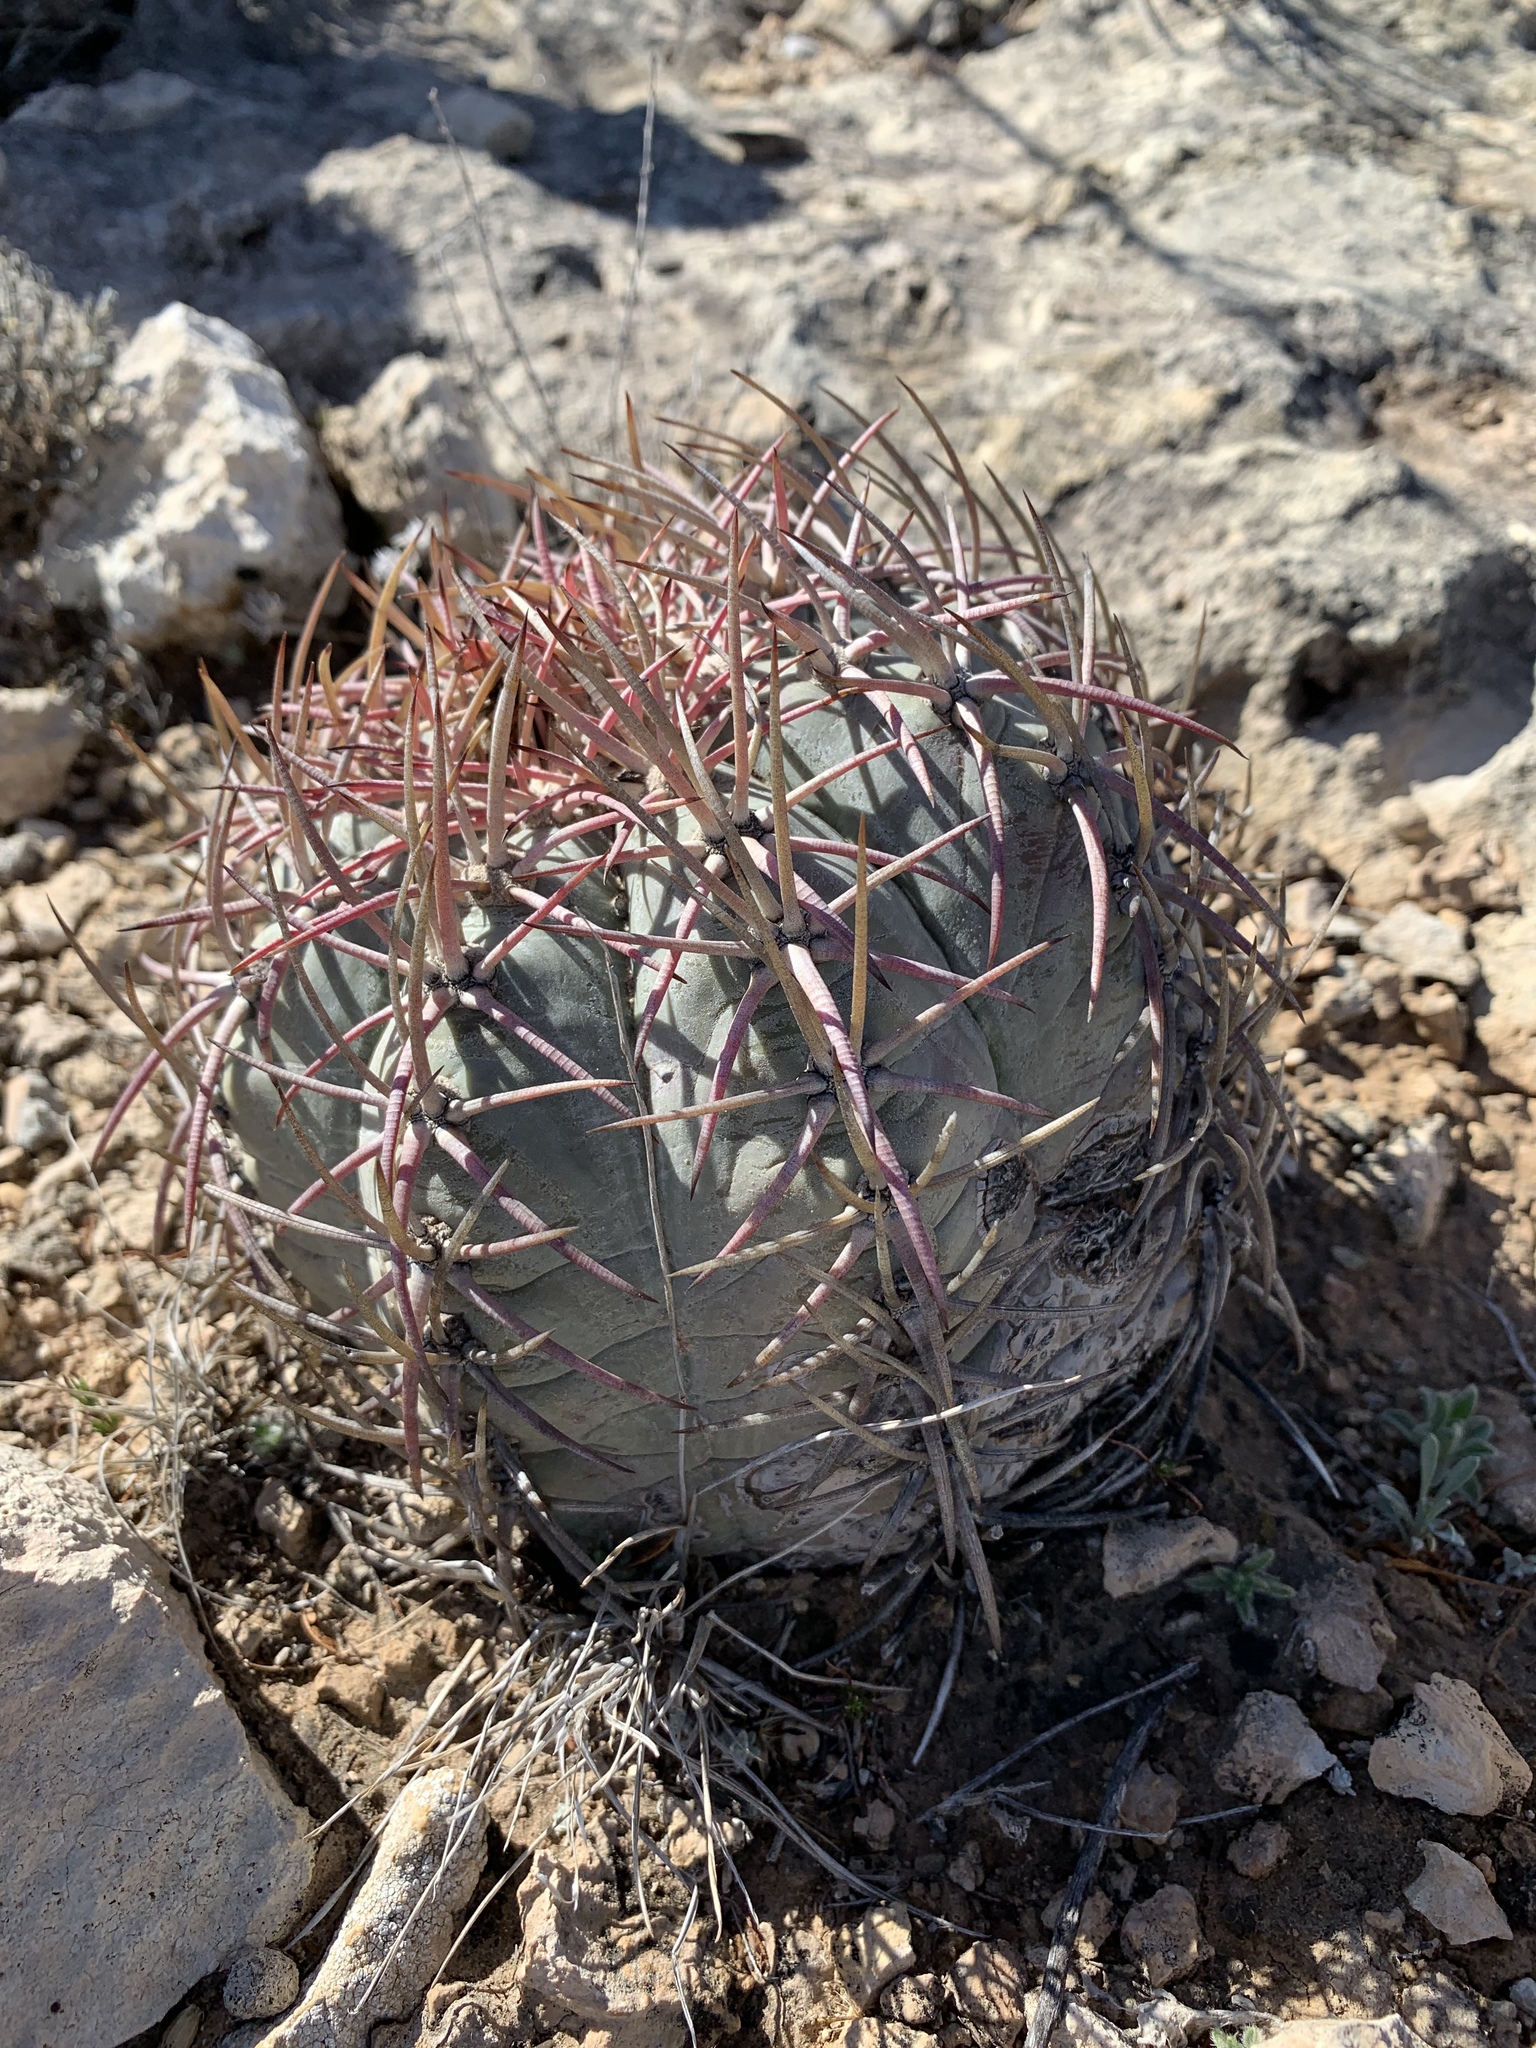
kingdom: Plantae
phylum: Tracheophyta
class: Magnoliopsida
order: Caryophyllales
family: Cactaceae
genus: Echinocactus
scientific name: Echinocactus horizonthalonius
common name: Devilshead
